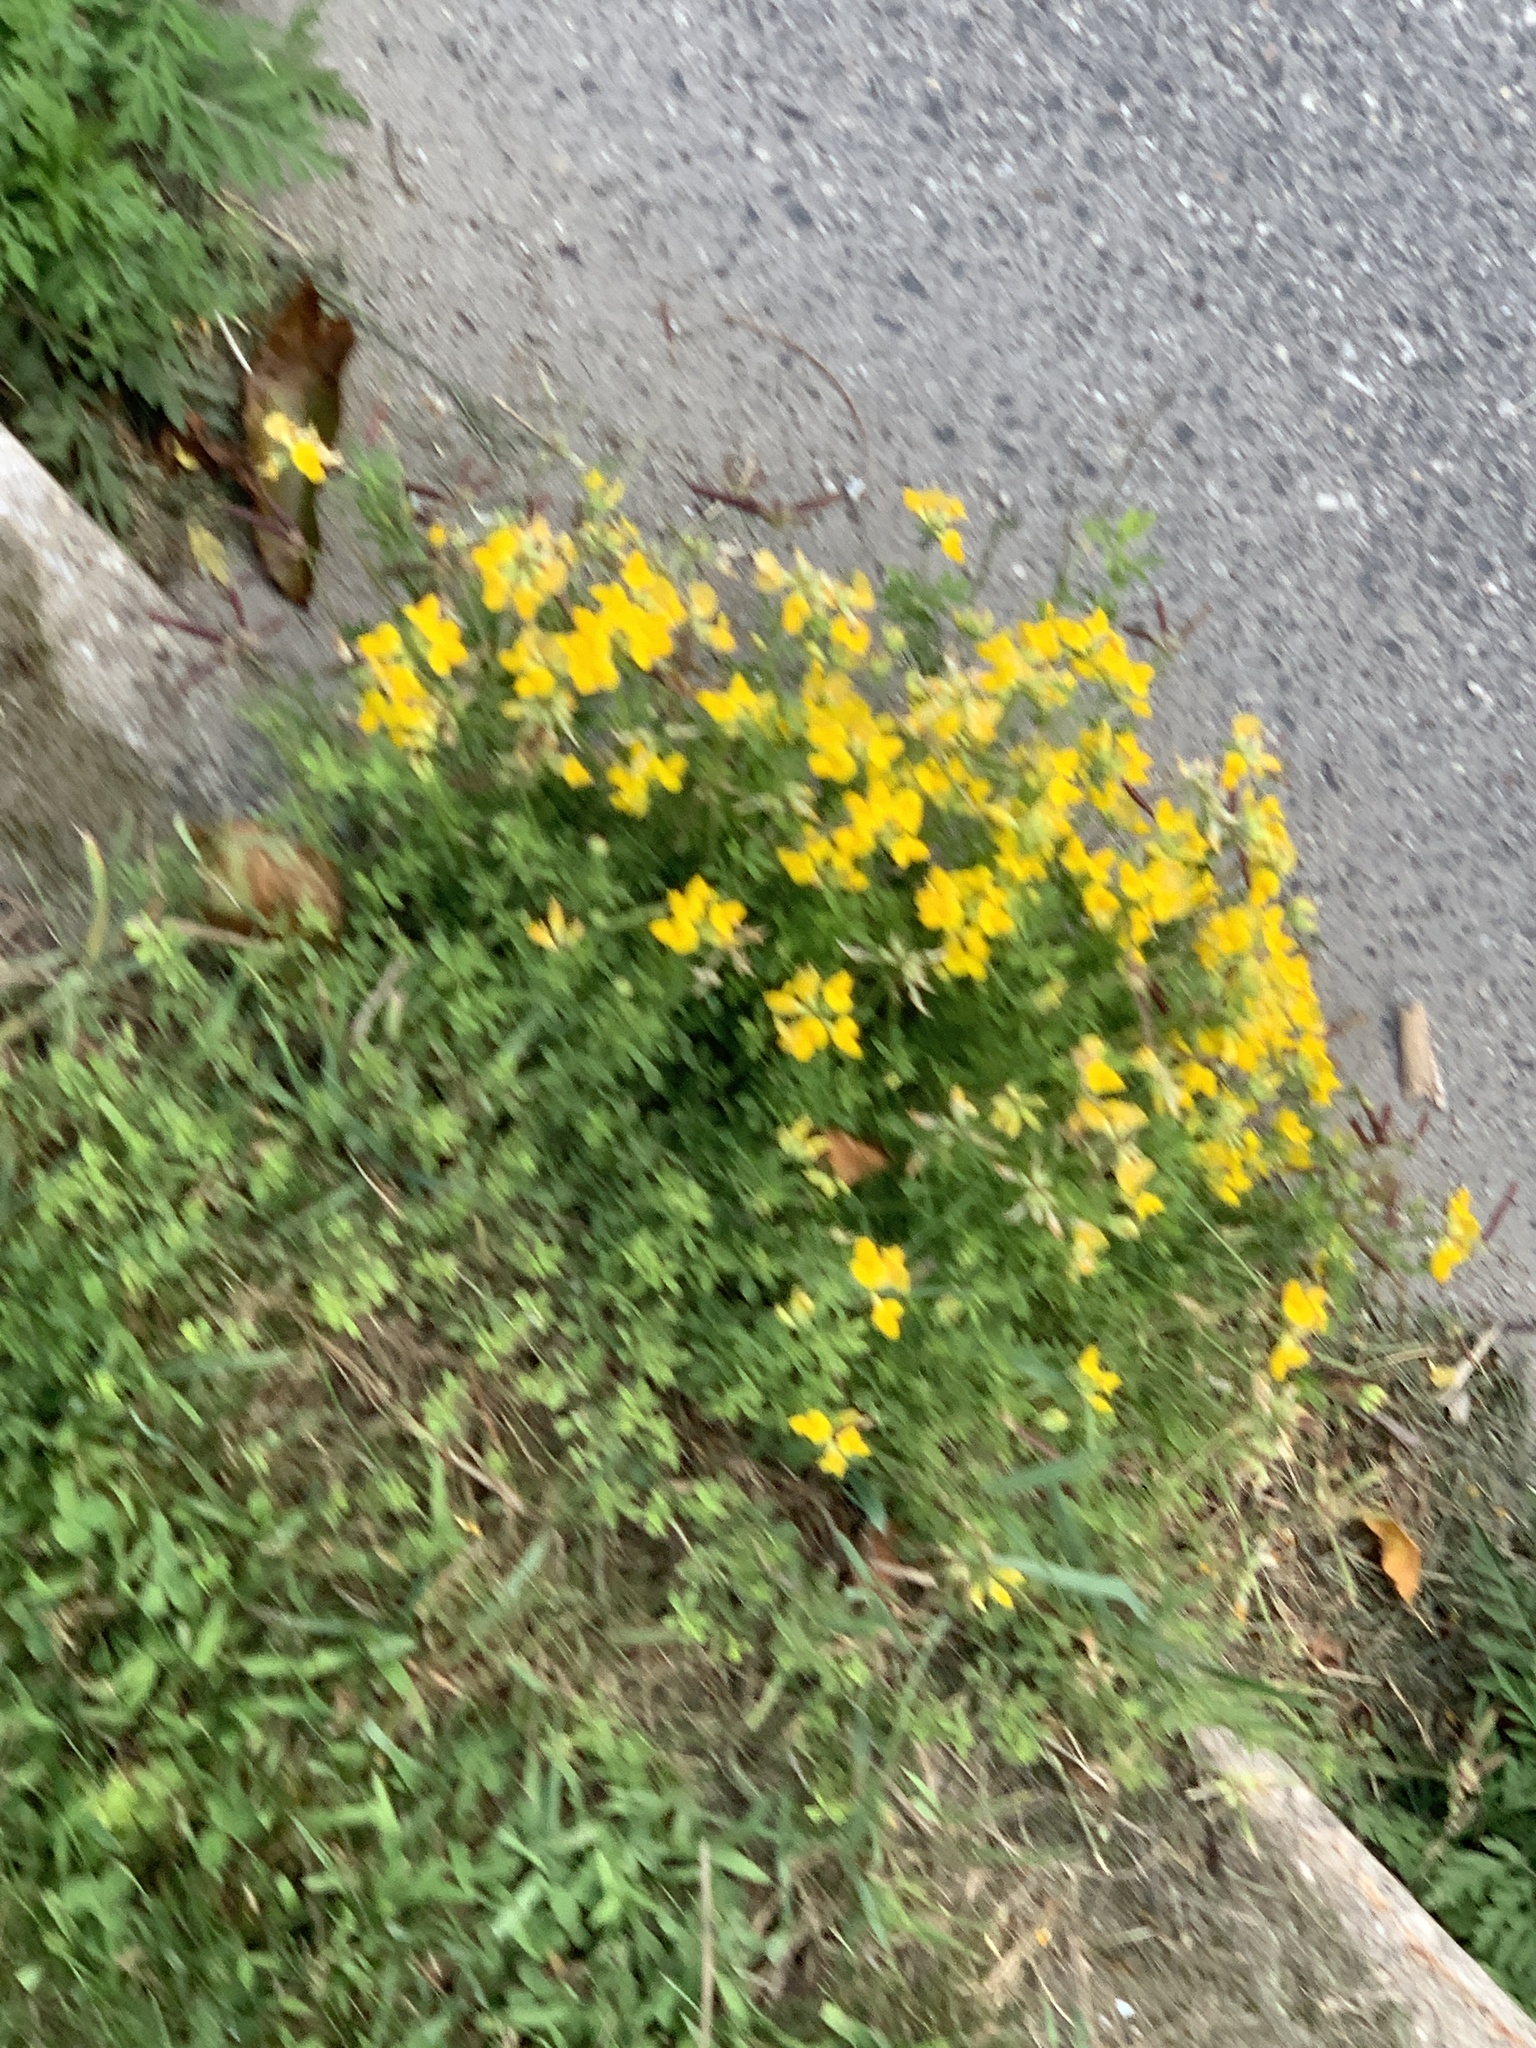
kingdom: Plantae
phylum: Tracheophyta
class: Magnoliopsida
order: Fabales
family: Fabaceae
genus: Lotus
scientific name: Lotus corniculatus
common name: Common bird's-foot-trefoil
